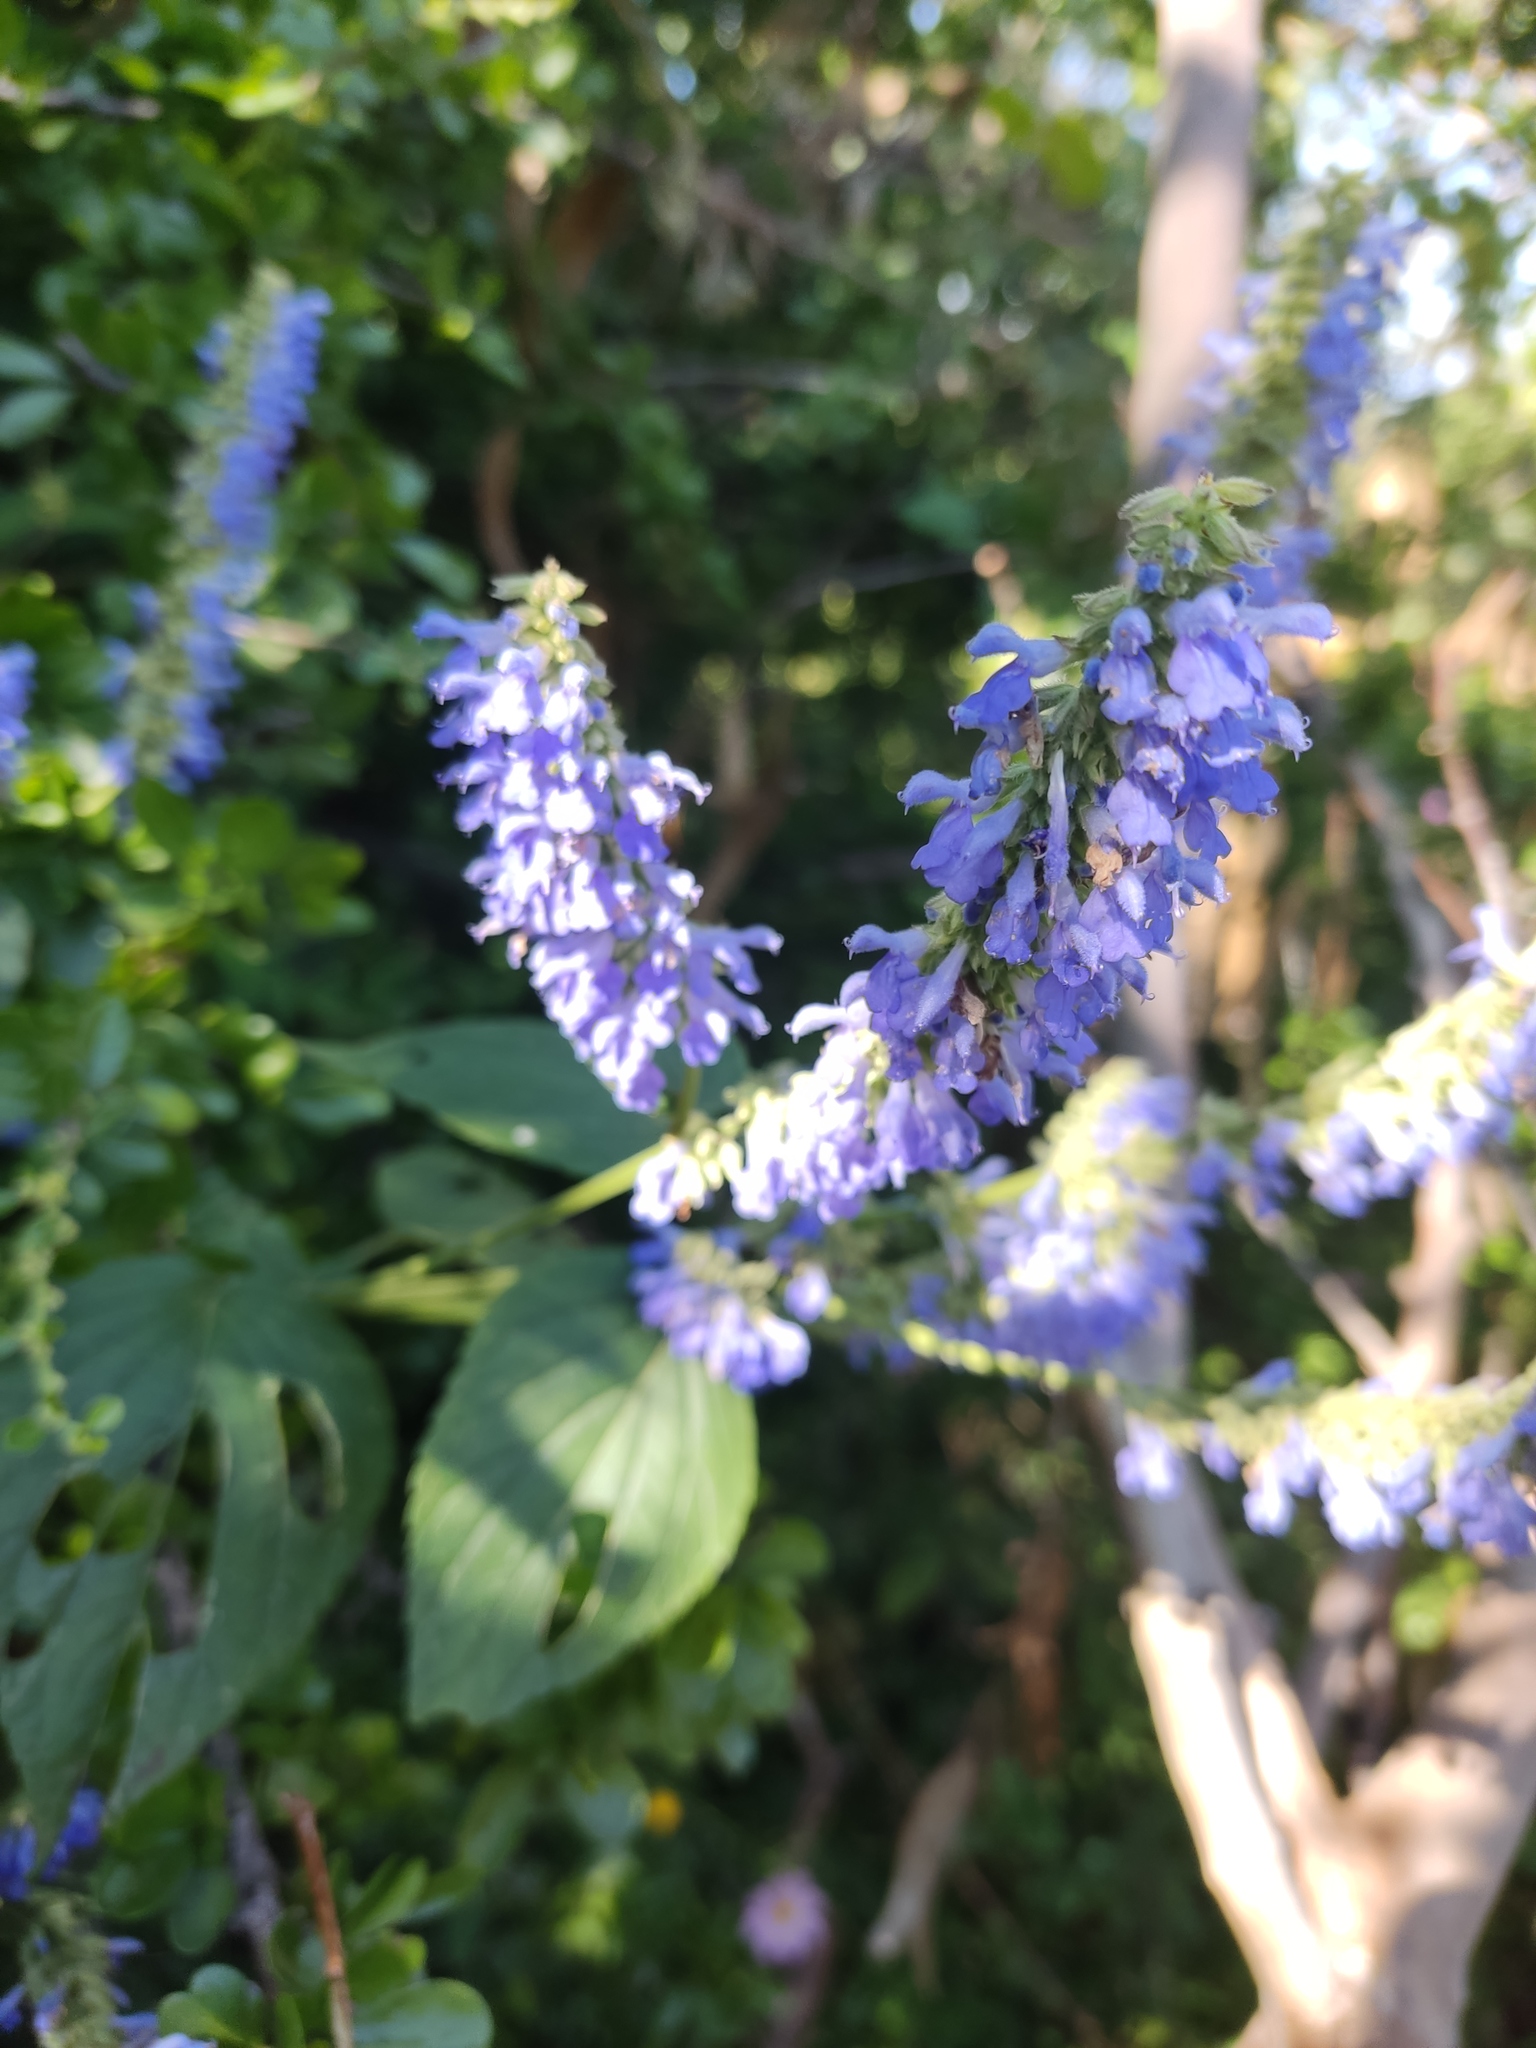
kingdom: Plantae
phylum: Tracheophyta
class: Magnoliopsida
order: Lamiales
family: Lamiaceae
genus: Salvia
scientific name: Salvia polystachia
